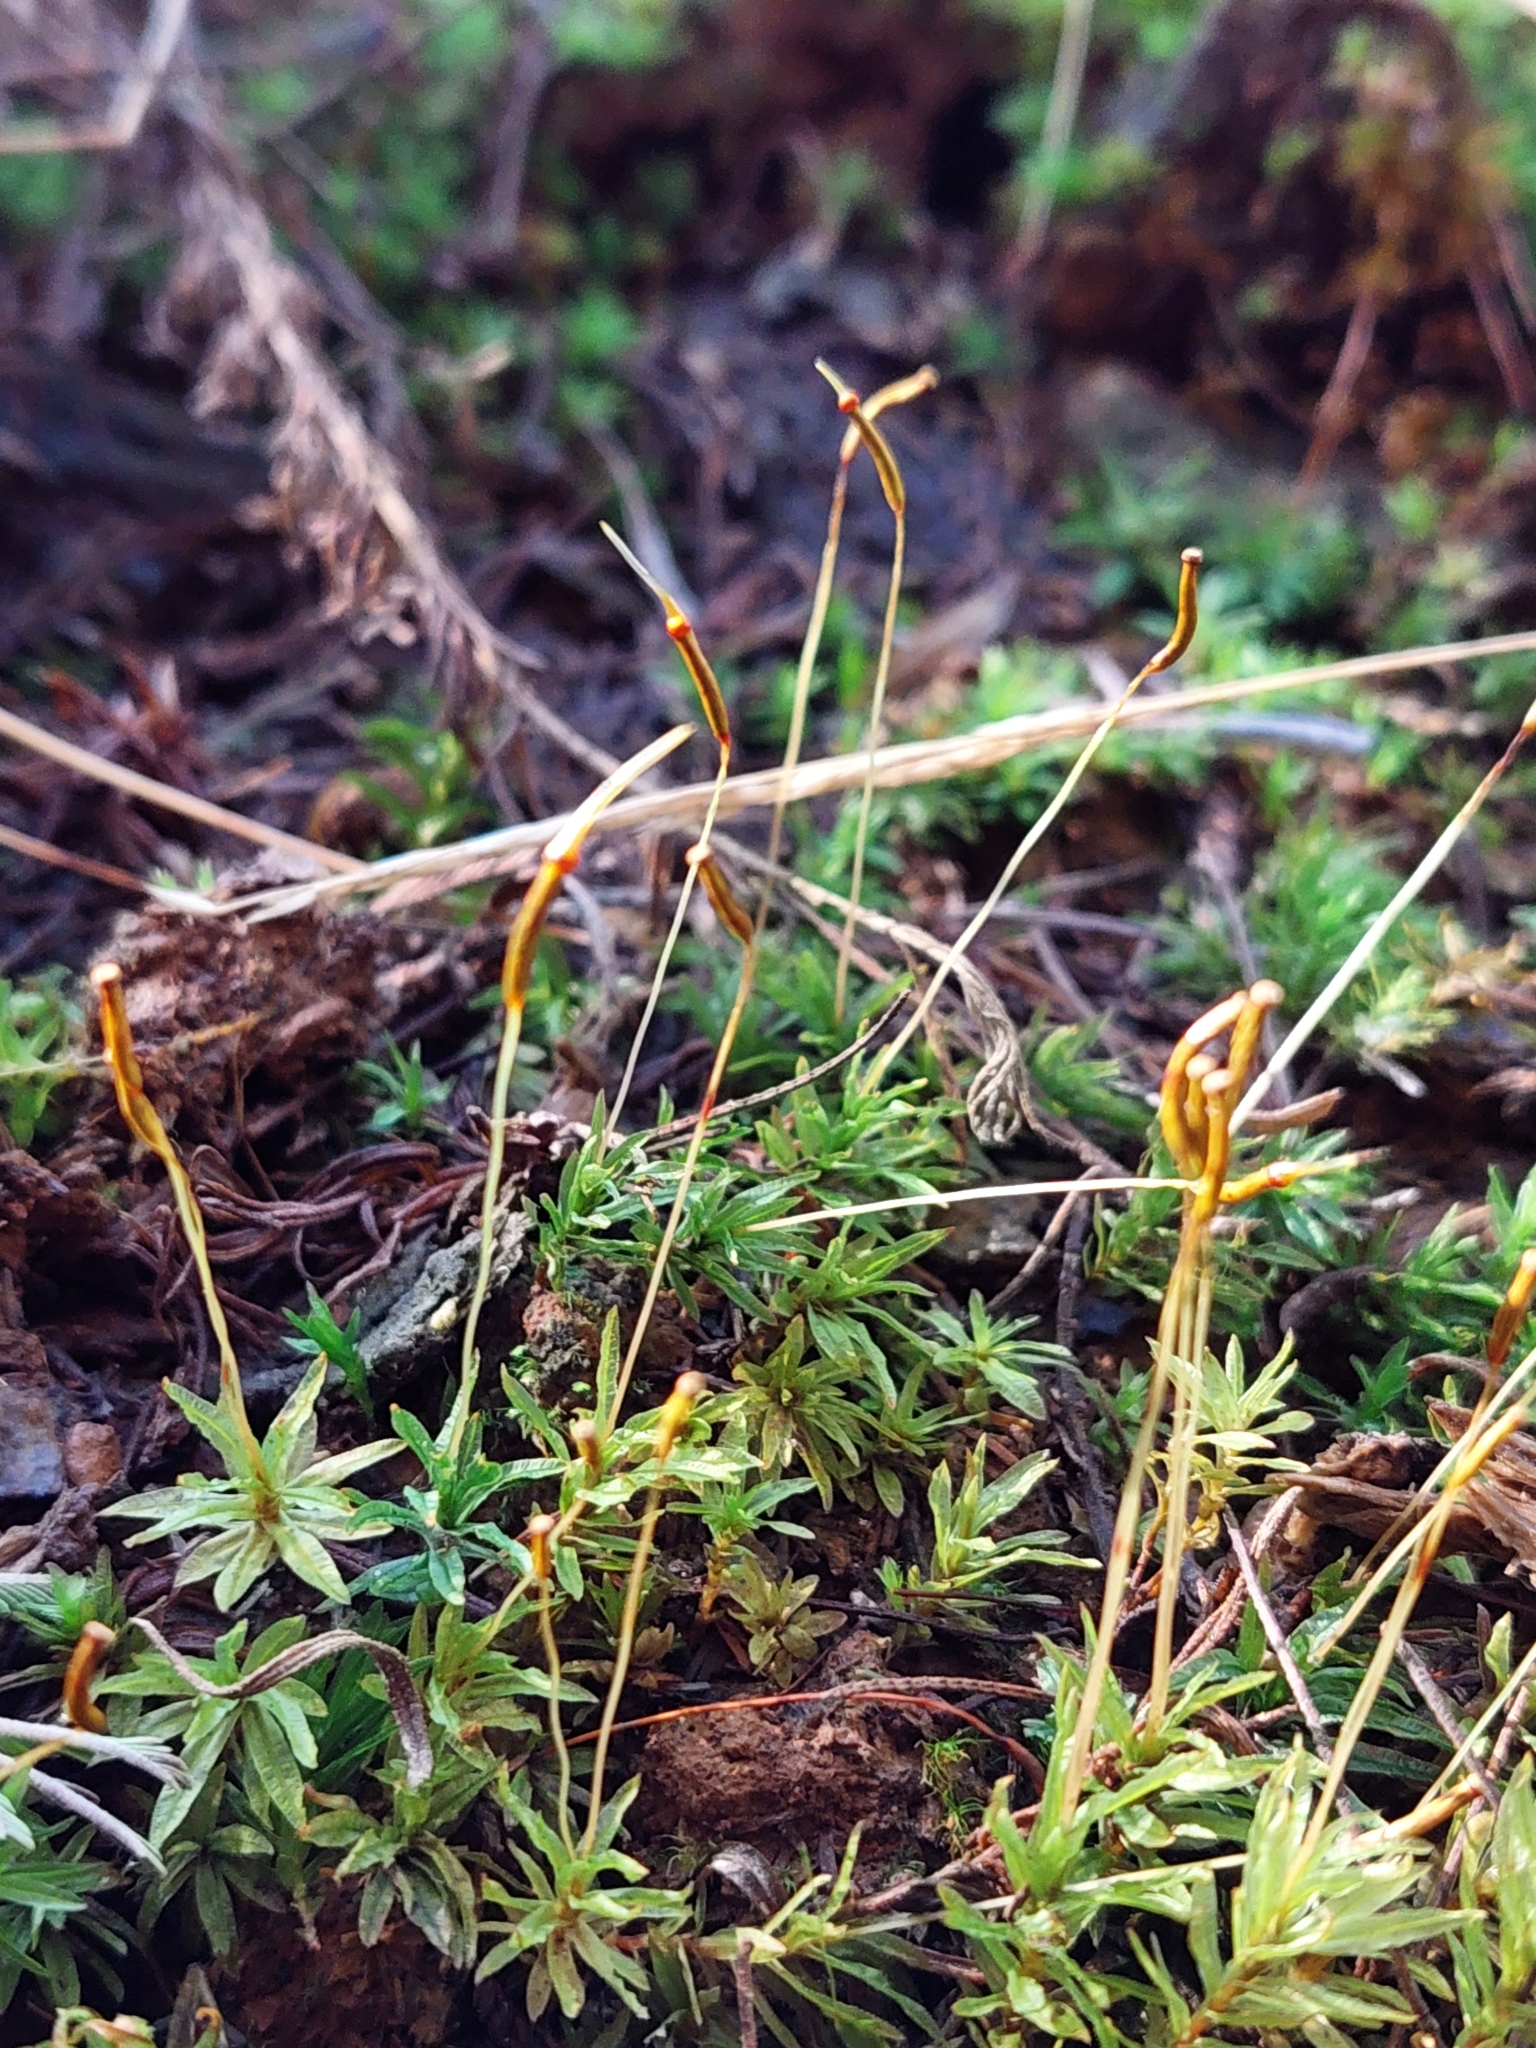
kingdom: Plantae
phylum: Bryophyta
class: Polytrichopsida
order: Polytrichales
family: Polytrichaceae
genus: Atrichum
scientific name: Atrichum androgynum
